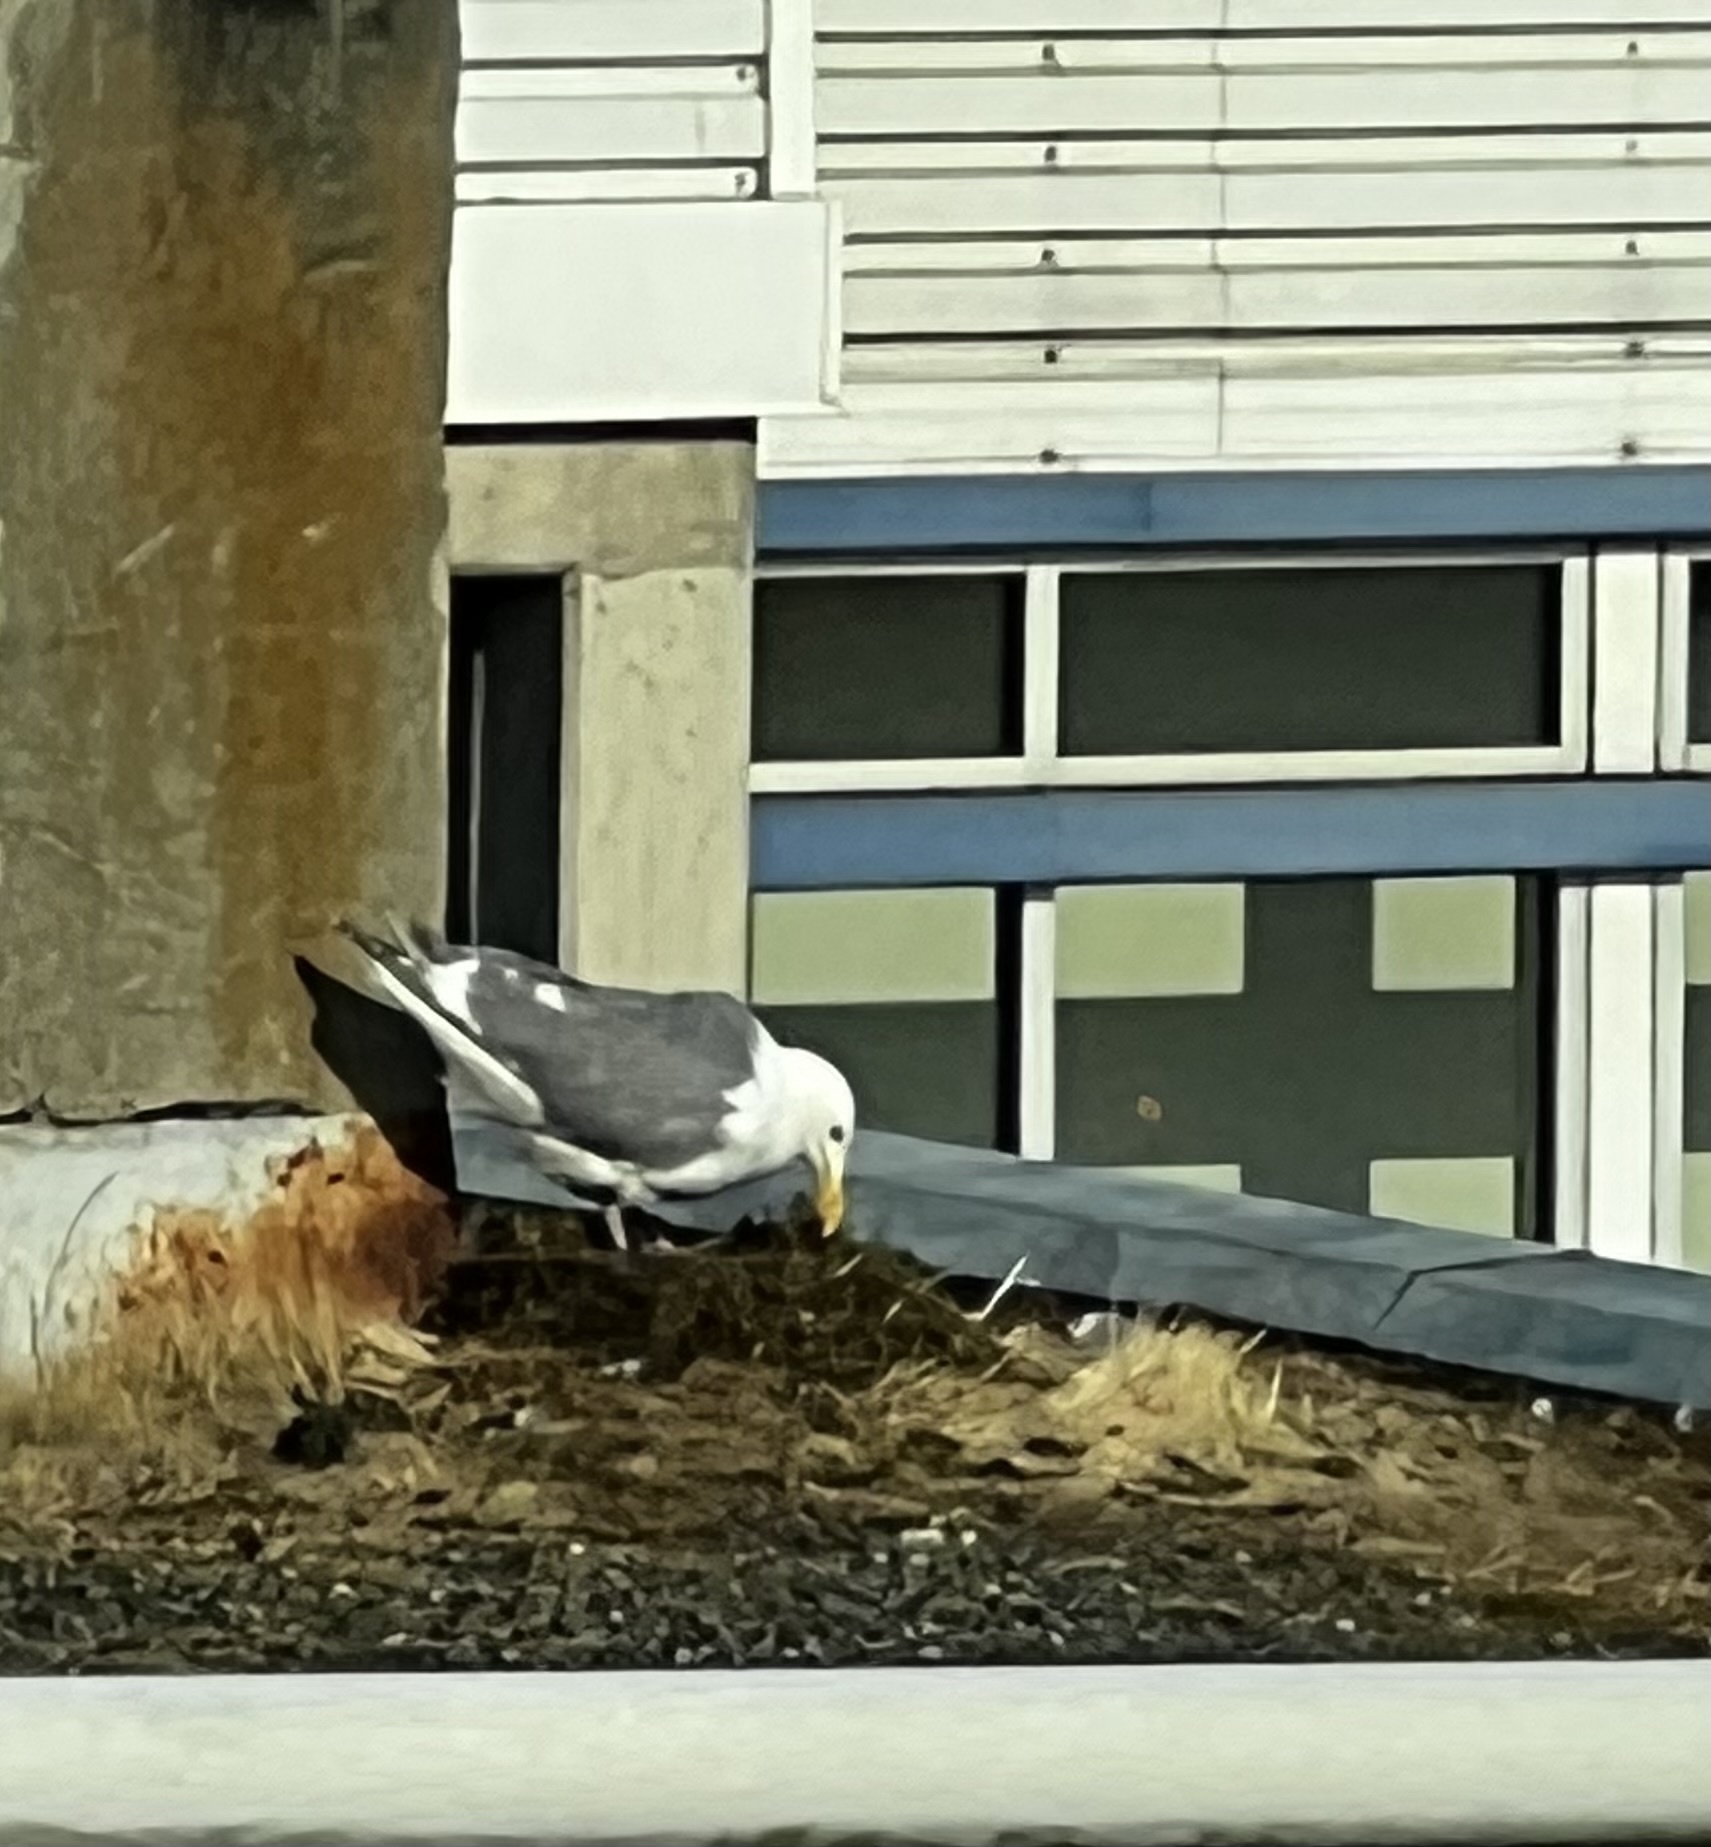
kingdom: Animalia
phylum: Chordata
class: Aves
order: Charadriiformes
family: Laridae
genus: Larus
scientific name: Larus
